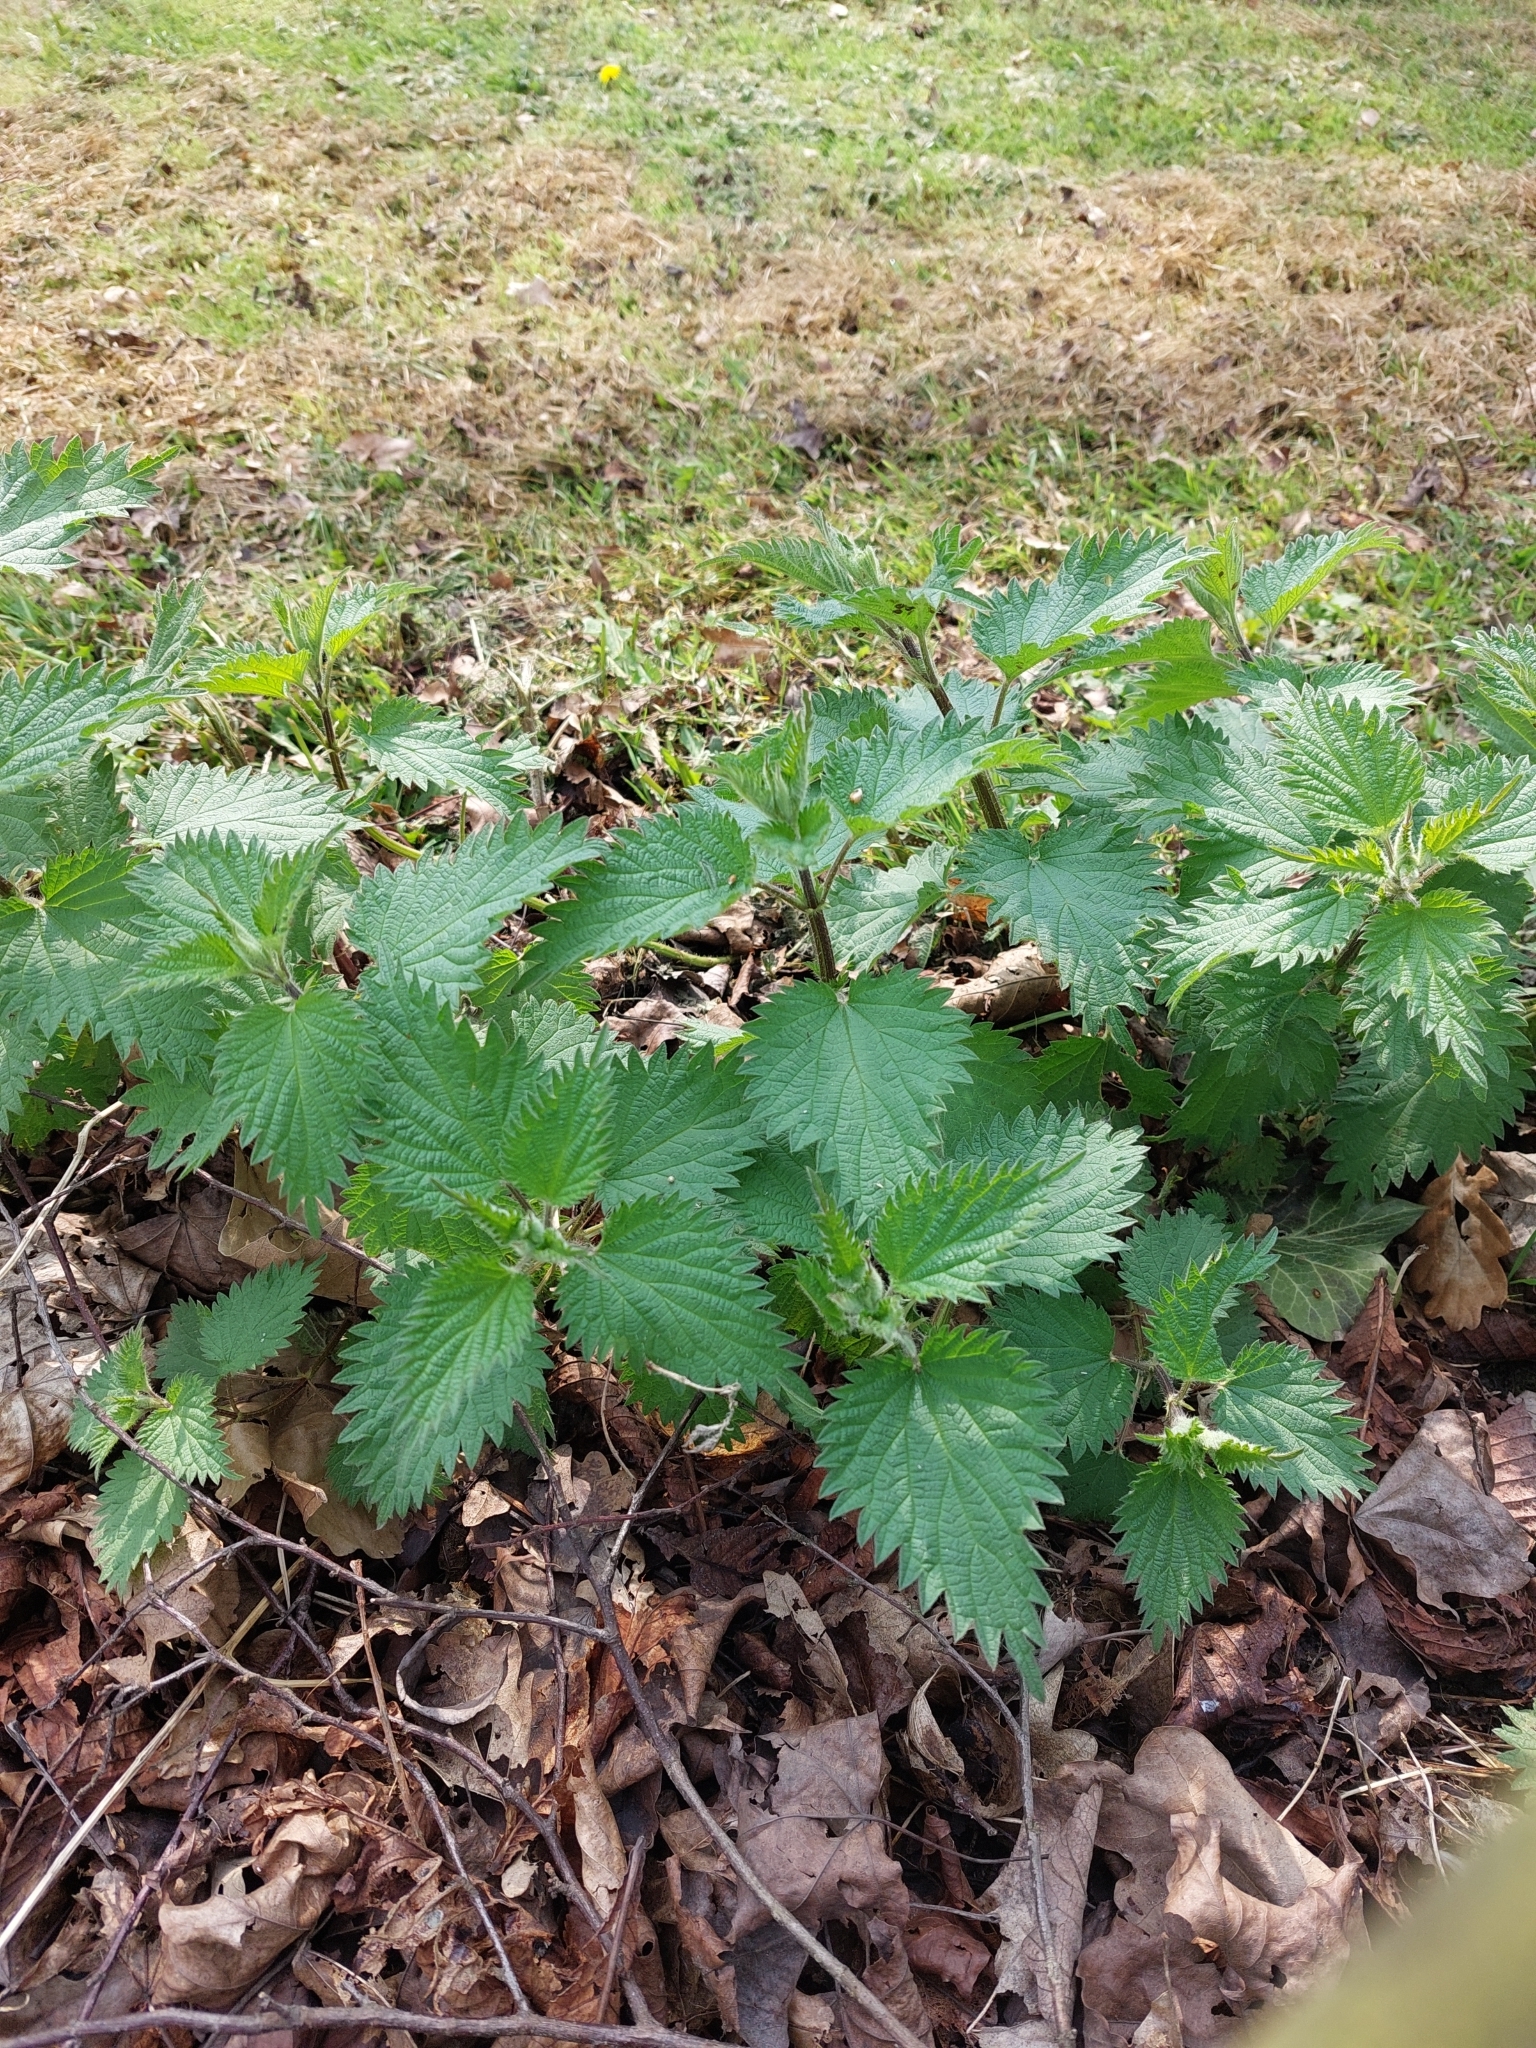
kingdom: Plantae
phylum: Tracheophyta
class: Magnoliopsida
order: Rosales
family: Urticaceae
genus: Urtica
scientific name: Urtica dioica
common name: Common nettle
